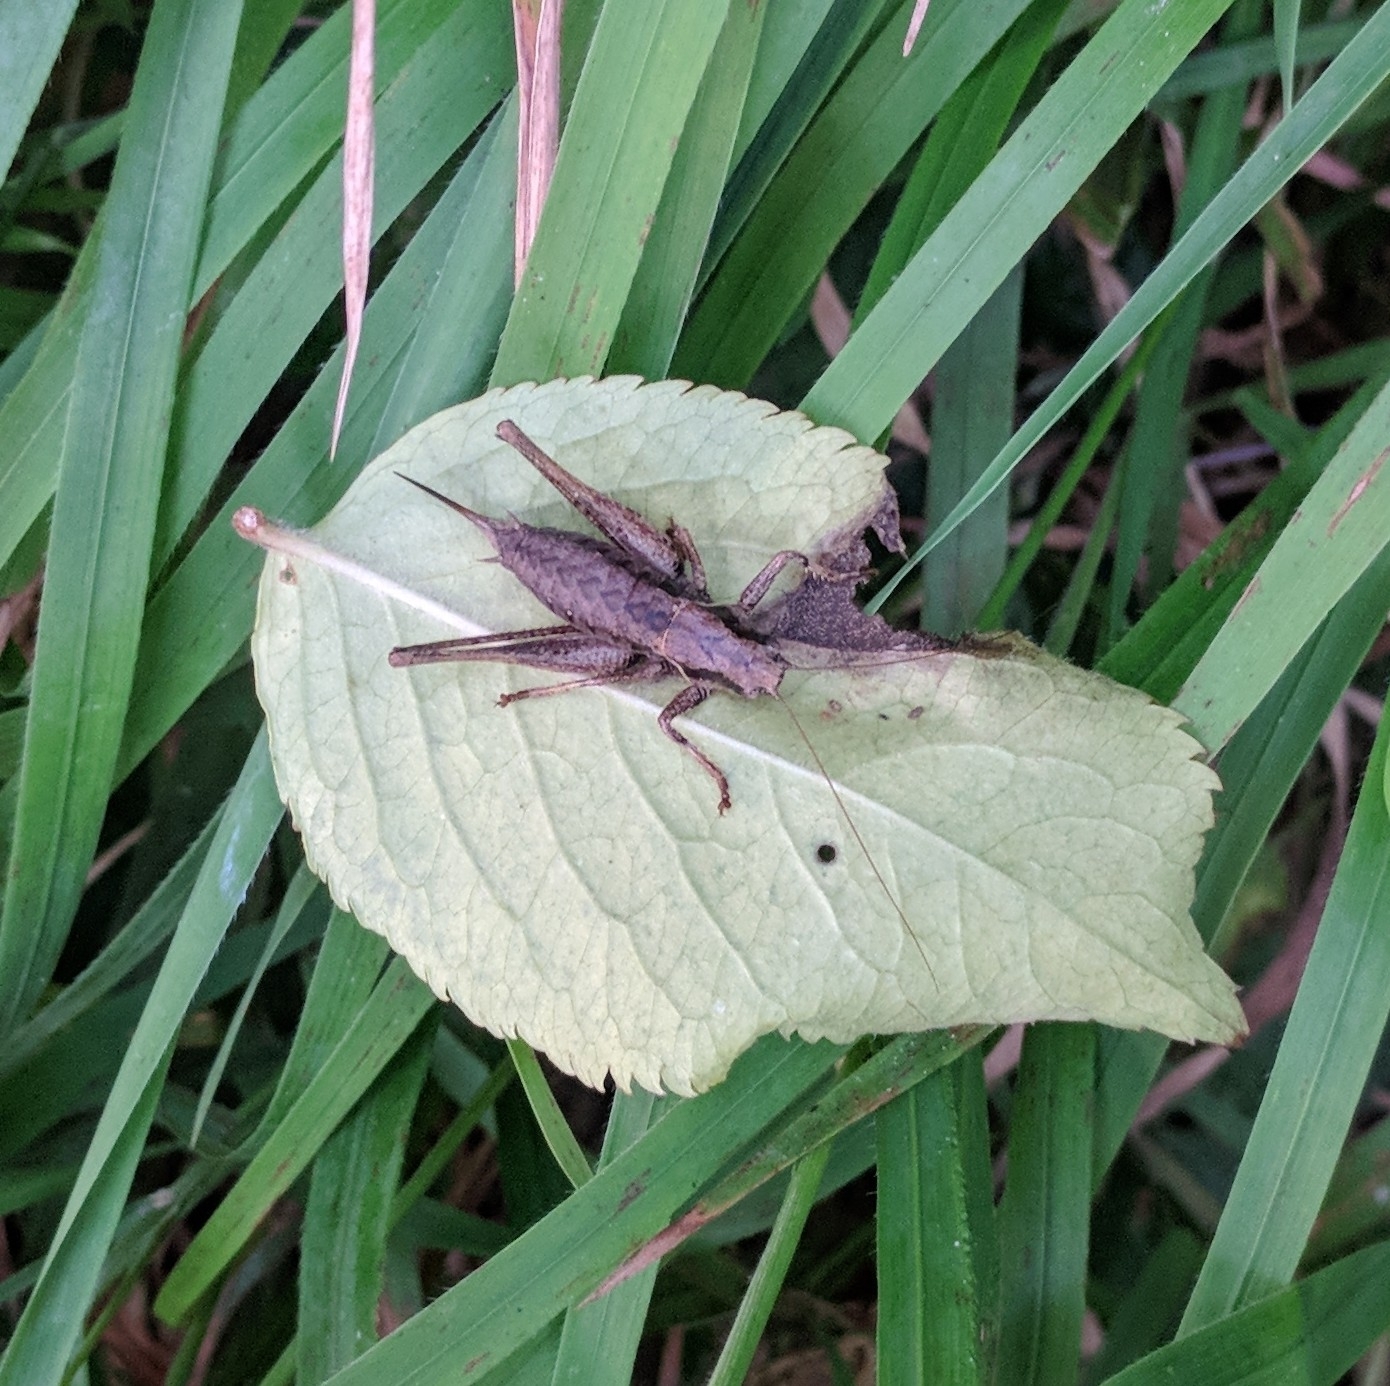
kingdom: Animalia
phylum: Arthropoda
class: Insecta
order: Orthoptera
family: Tettigoniidae
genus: Pholidoptera
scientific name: Pholidoptera griseoaptera
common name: Dark bush-cricket
